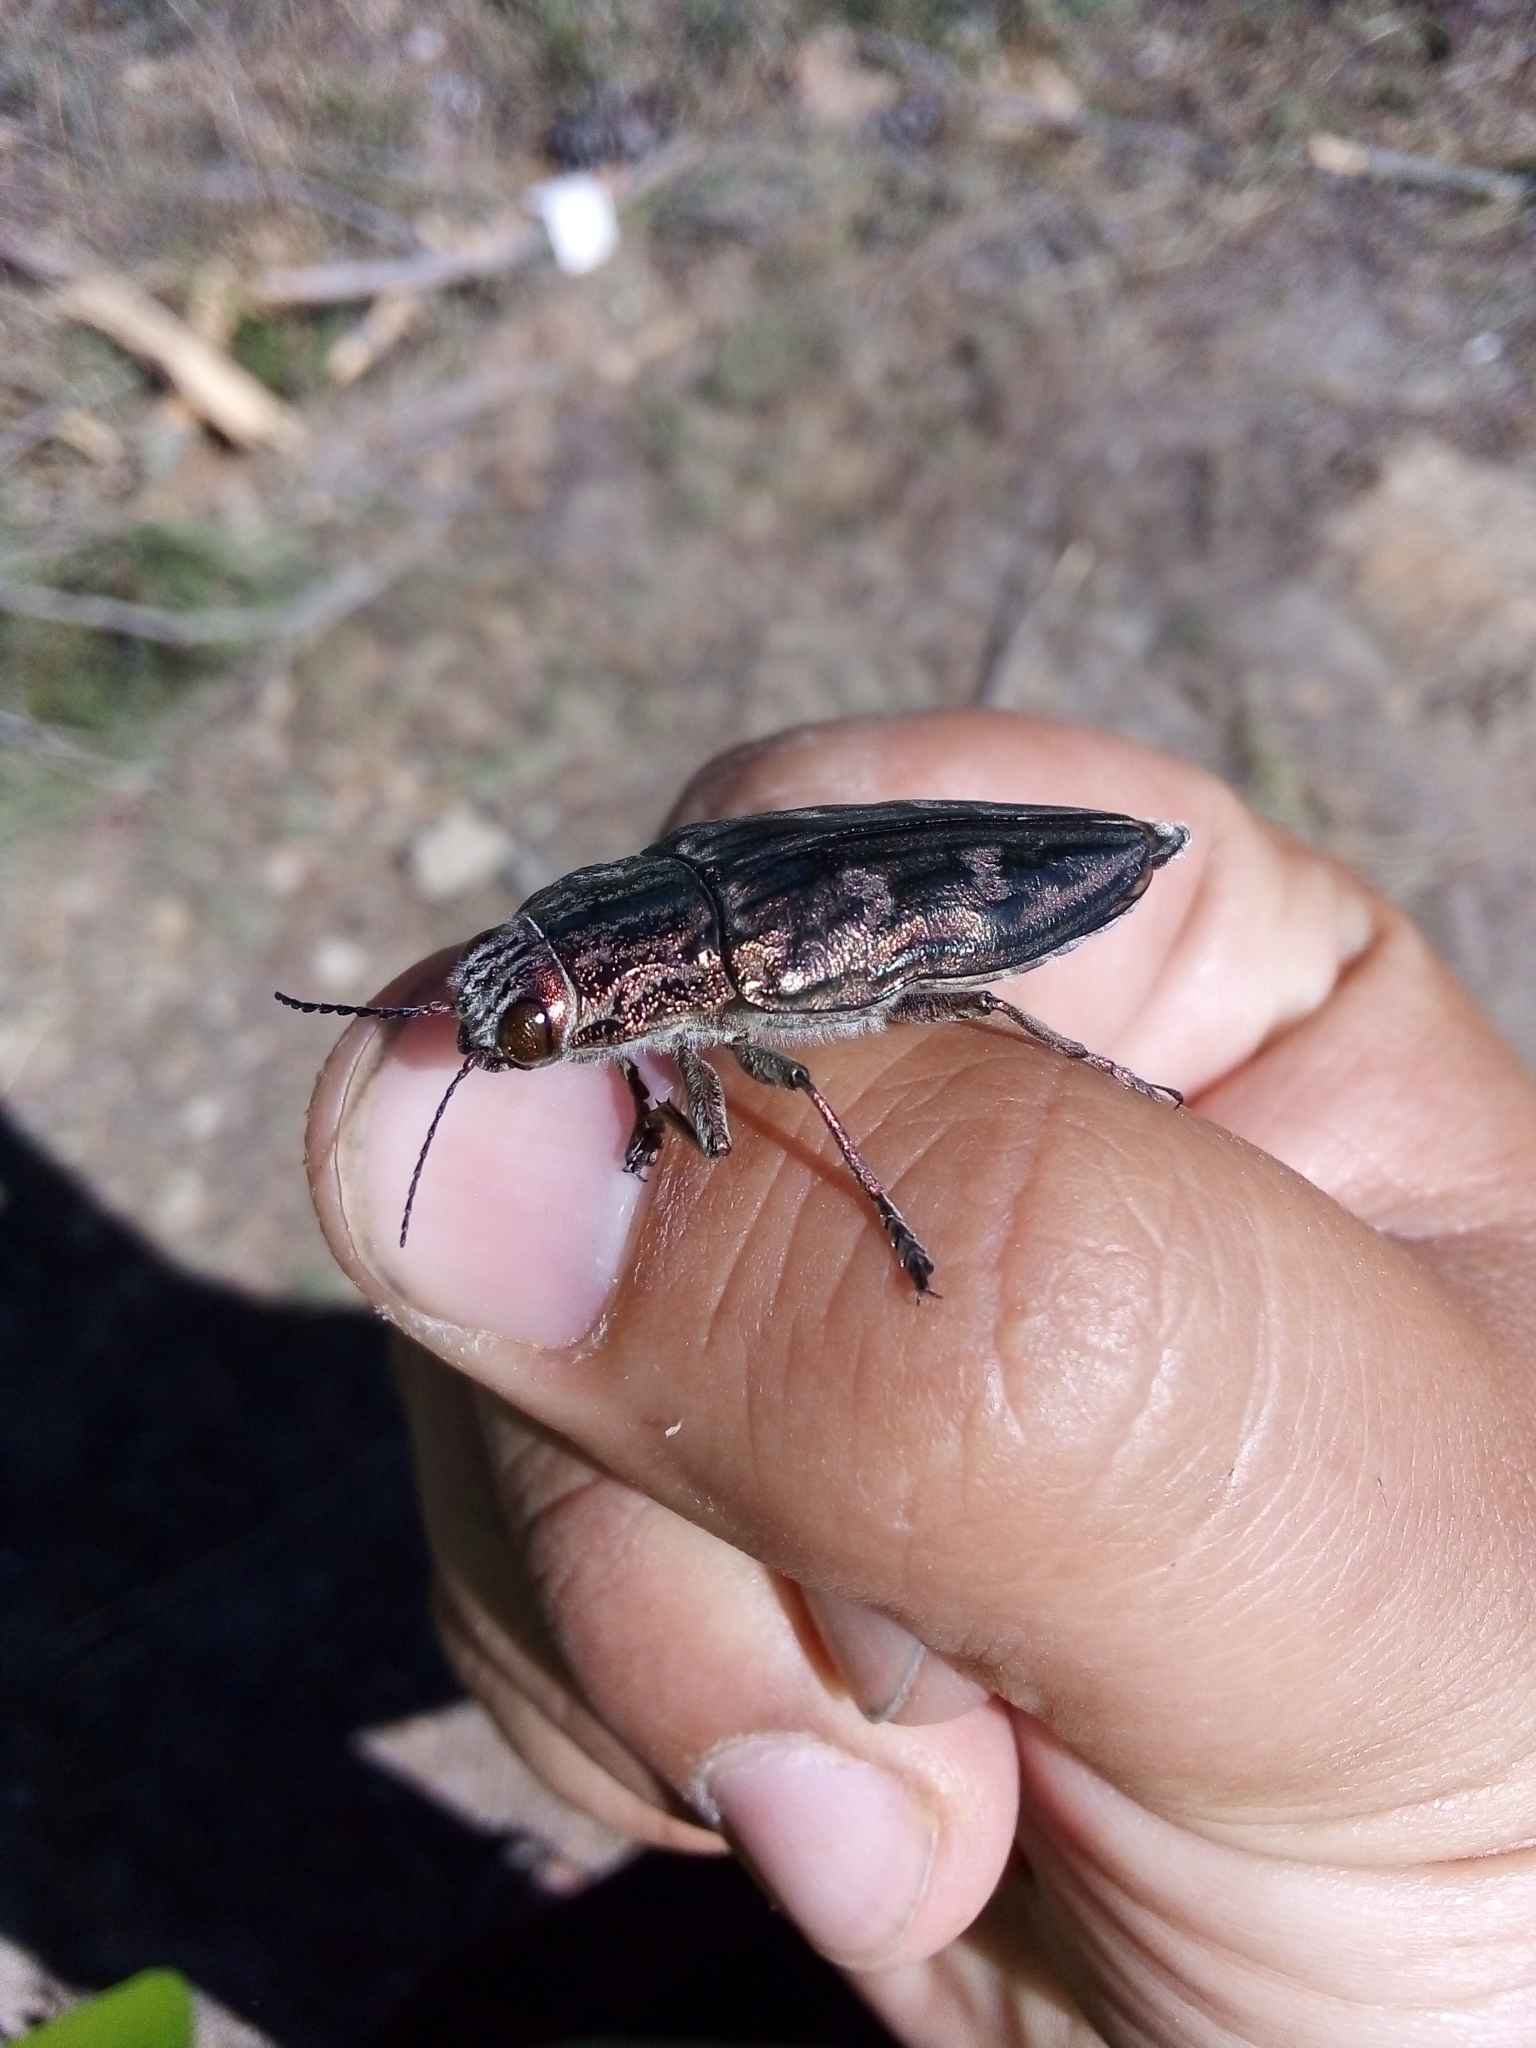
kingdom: Animalia
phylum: Arthropoda
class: Insecta
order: Coleoptera
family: Buprestidae
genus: Chalcophora
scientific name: Chalcophora massiliensis
